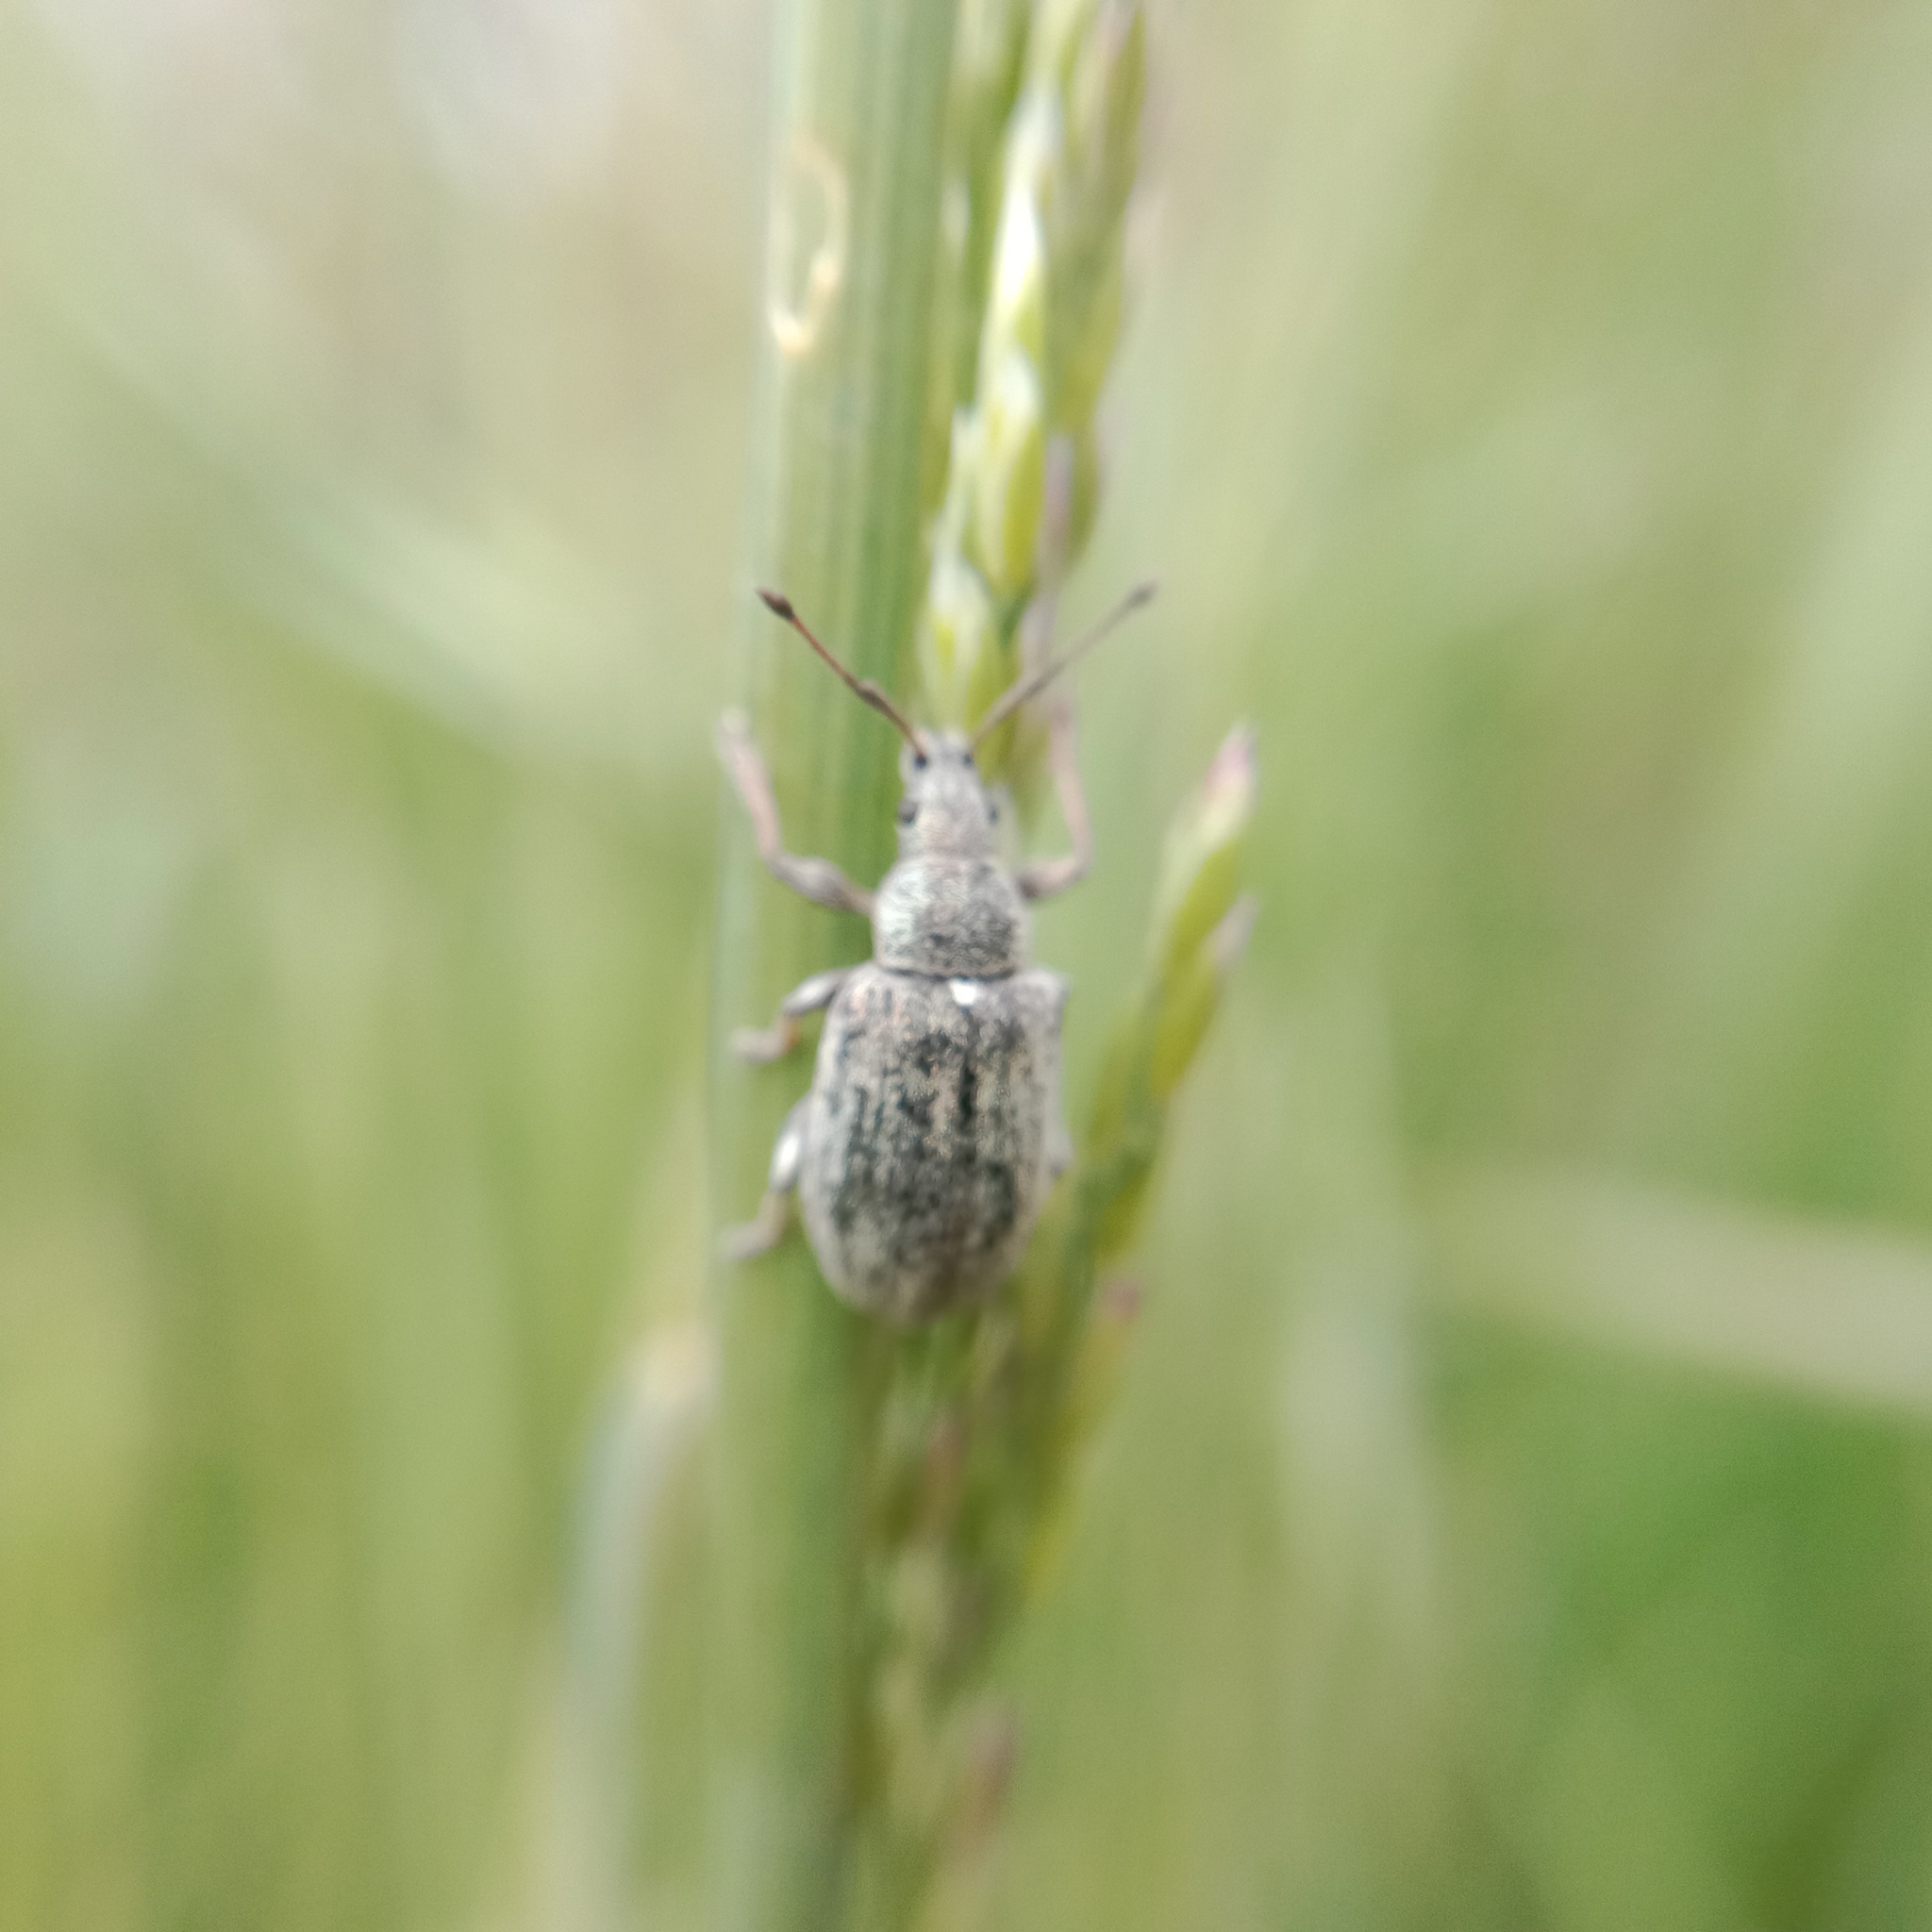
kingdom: Animalia
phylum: Arthropoda
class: Insecta
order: Coleoptera
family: Curculionidae
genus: Phyllobius
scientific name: Phyllobius pyri
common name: Common leaf weevil
